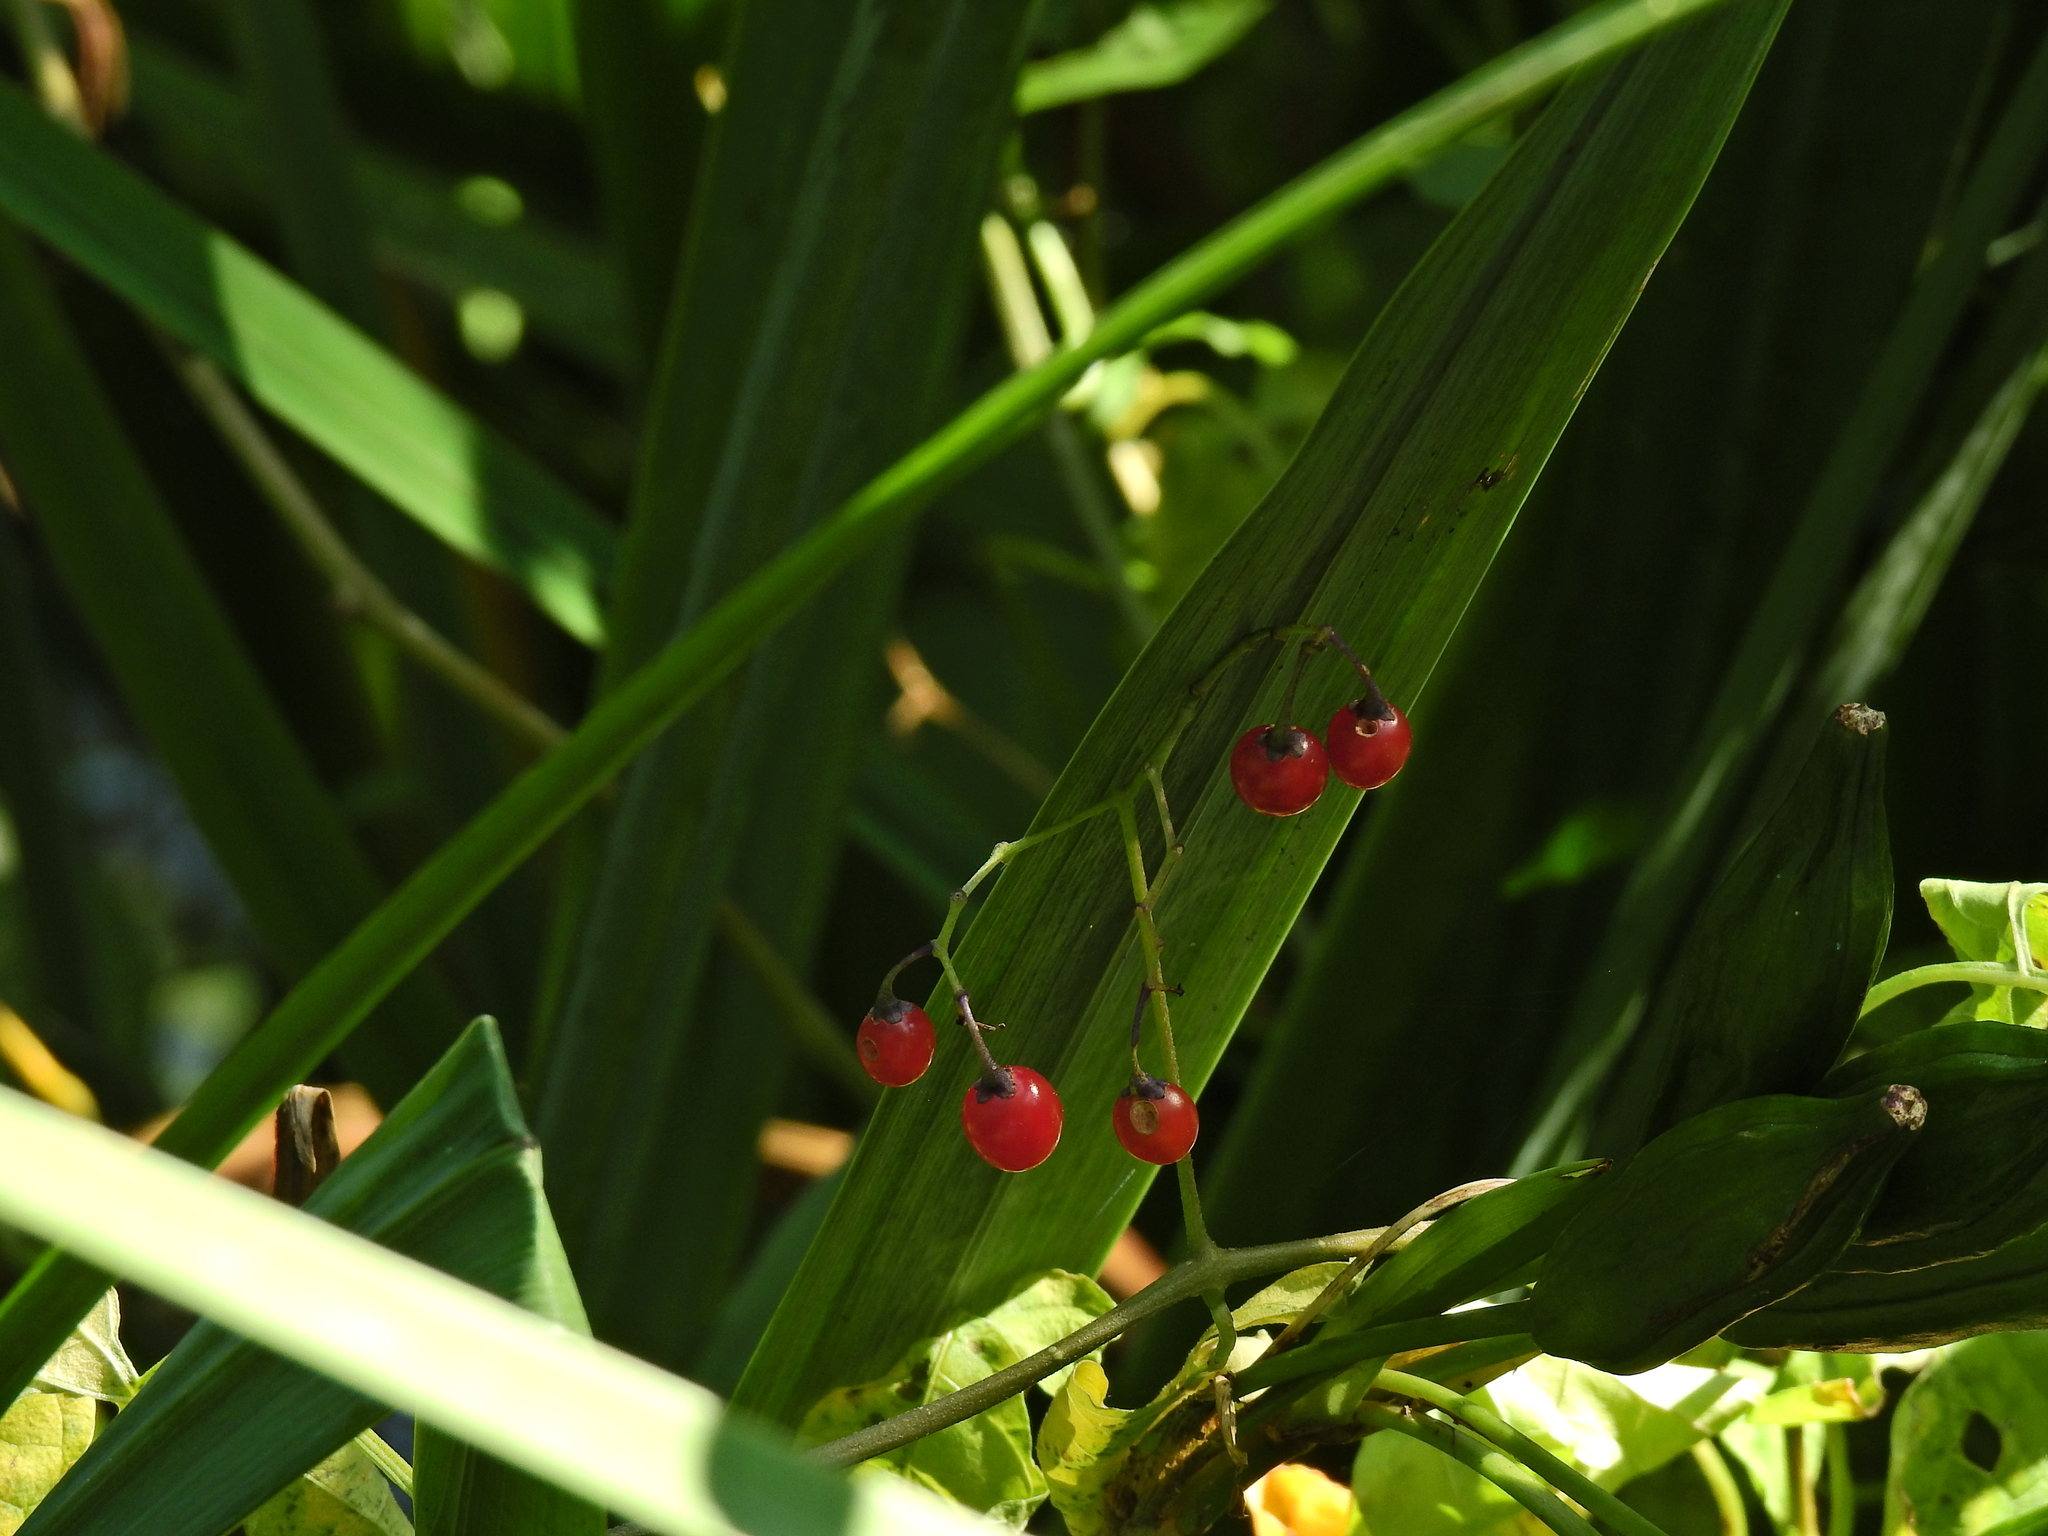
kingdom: Plantae
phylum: Tracheophyta
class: Magnoliopsida
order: Solanales
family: Solanaceae
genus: Solanum
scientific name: Solanum dulcamara
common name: Climbing nightshade
